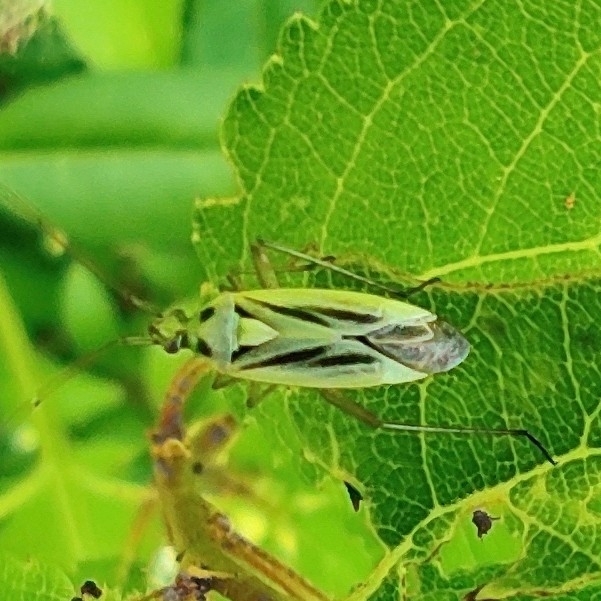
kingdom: Animalia
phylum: Arthropoda
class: Insecta
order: Hemiptera
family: Miridae
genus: Stenotus
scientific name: Stenotus binotatus
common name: Plant bug
